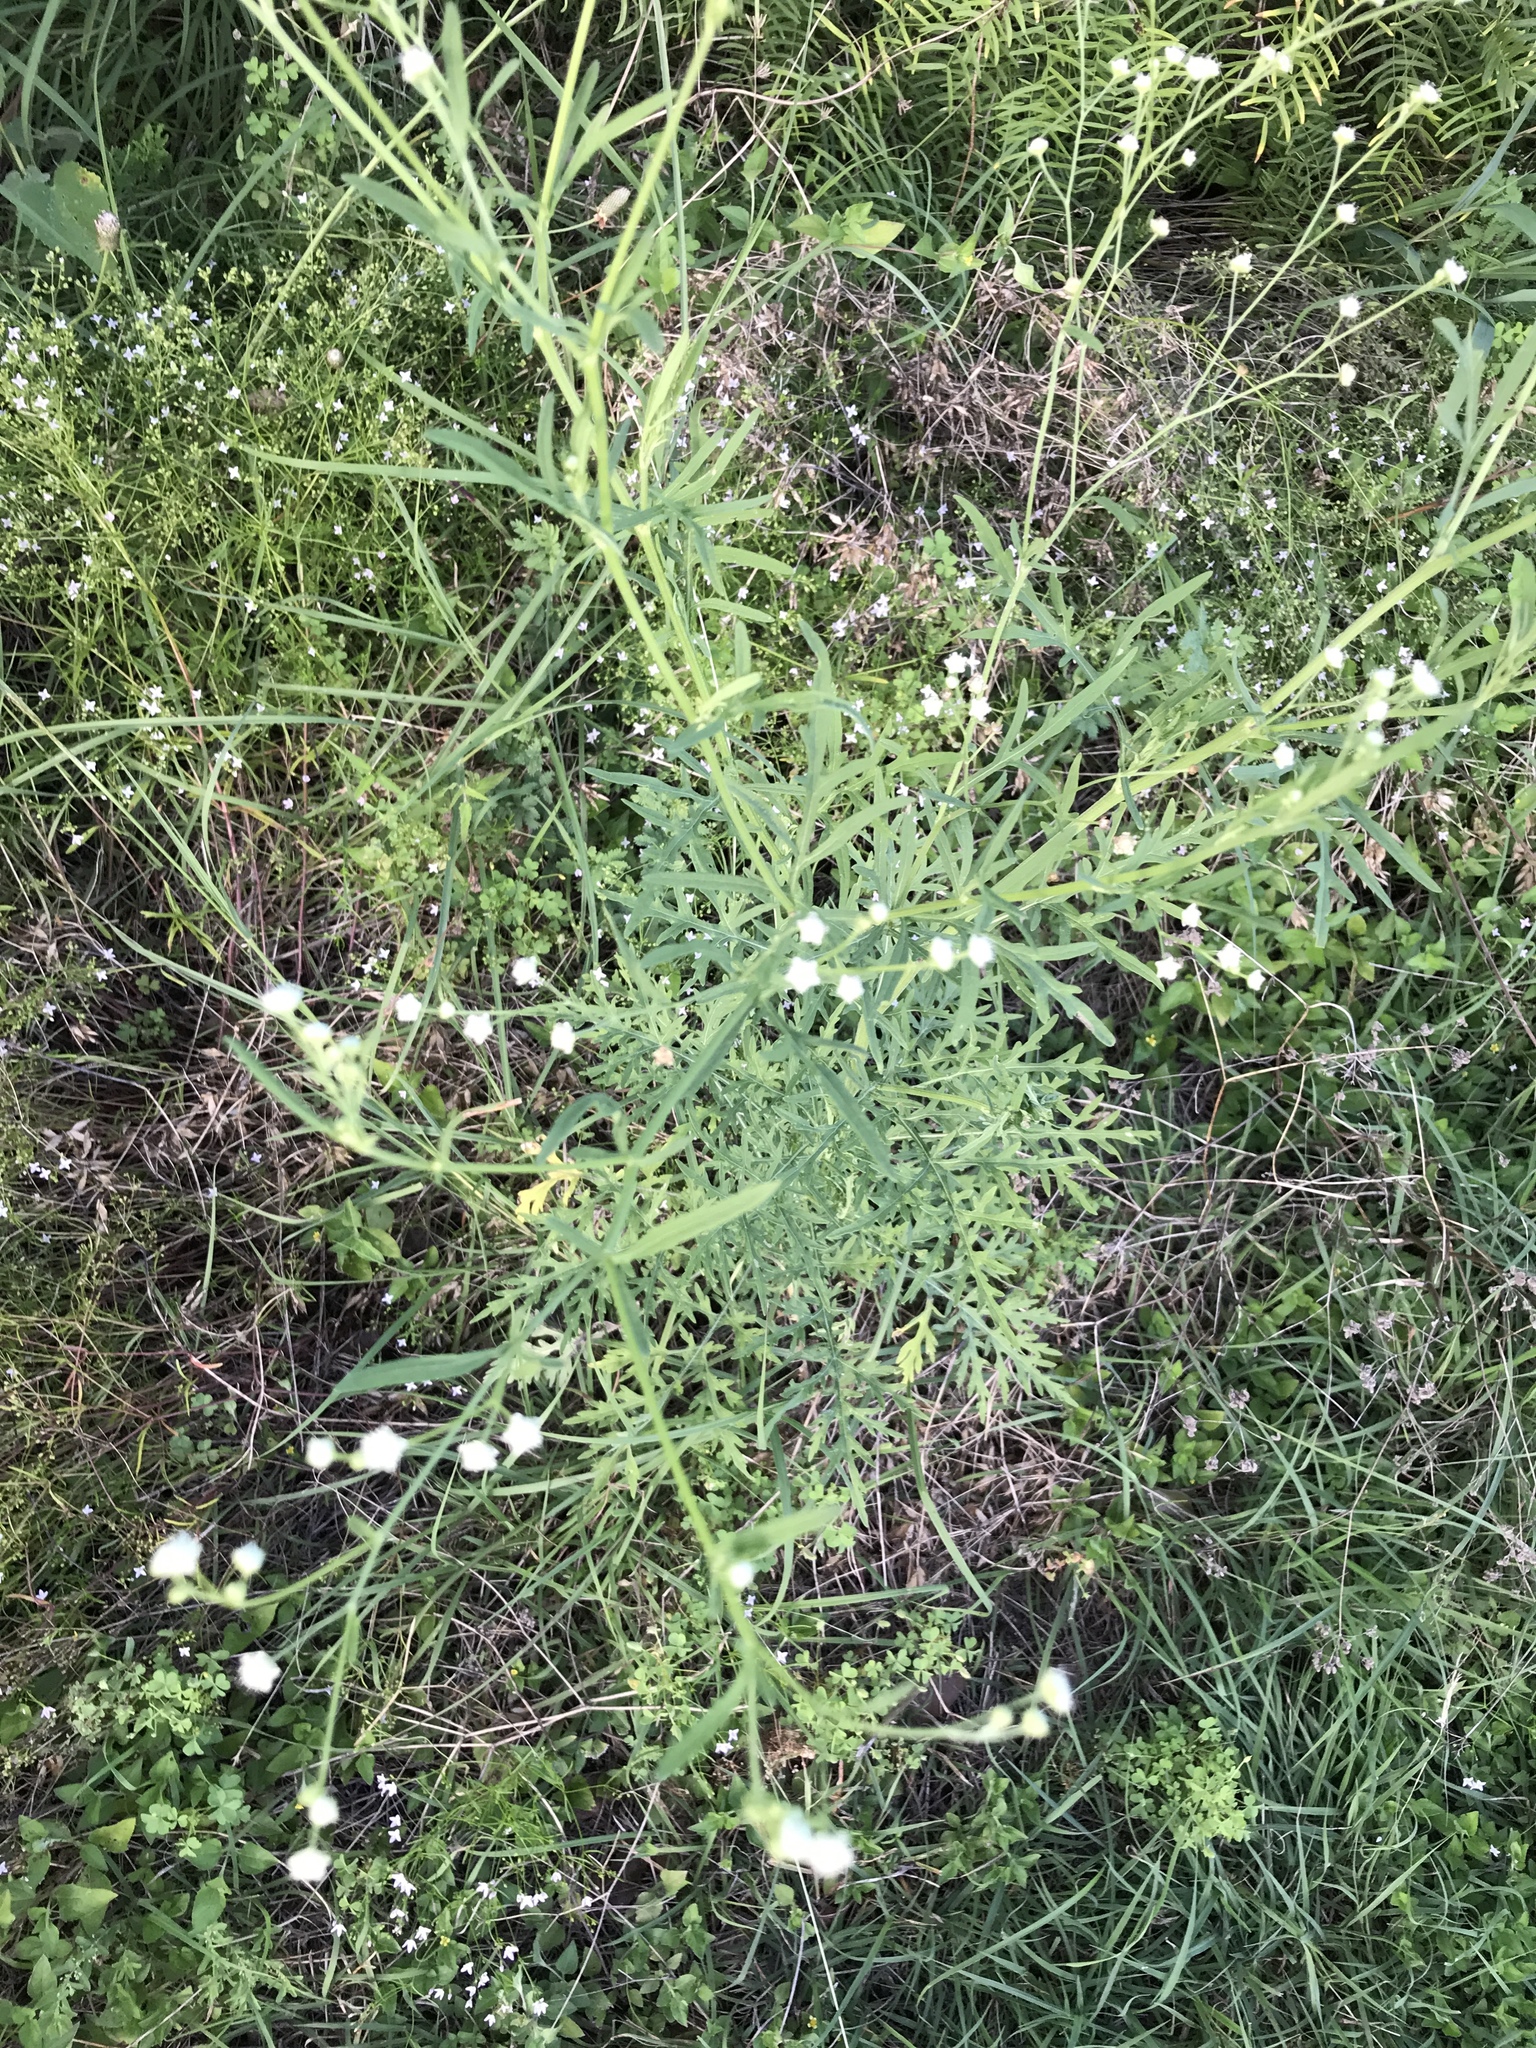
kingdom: Plantae
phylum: Tracheophyta
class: Magnoliopsida
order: Asterales
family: Asteraceae
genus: Parthenium
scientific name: Parthenium hysterophorus
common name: Santa maria feverfew
